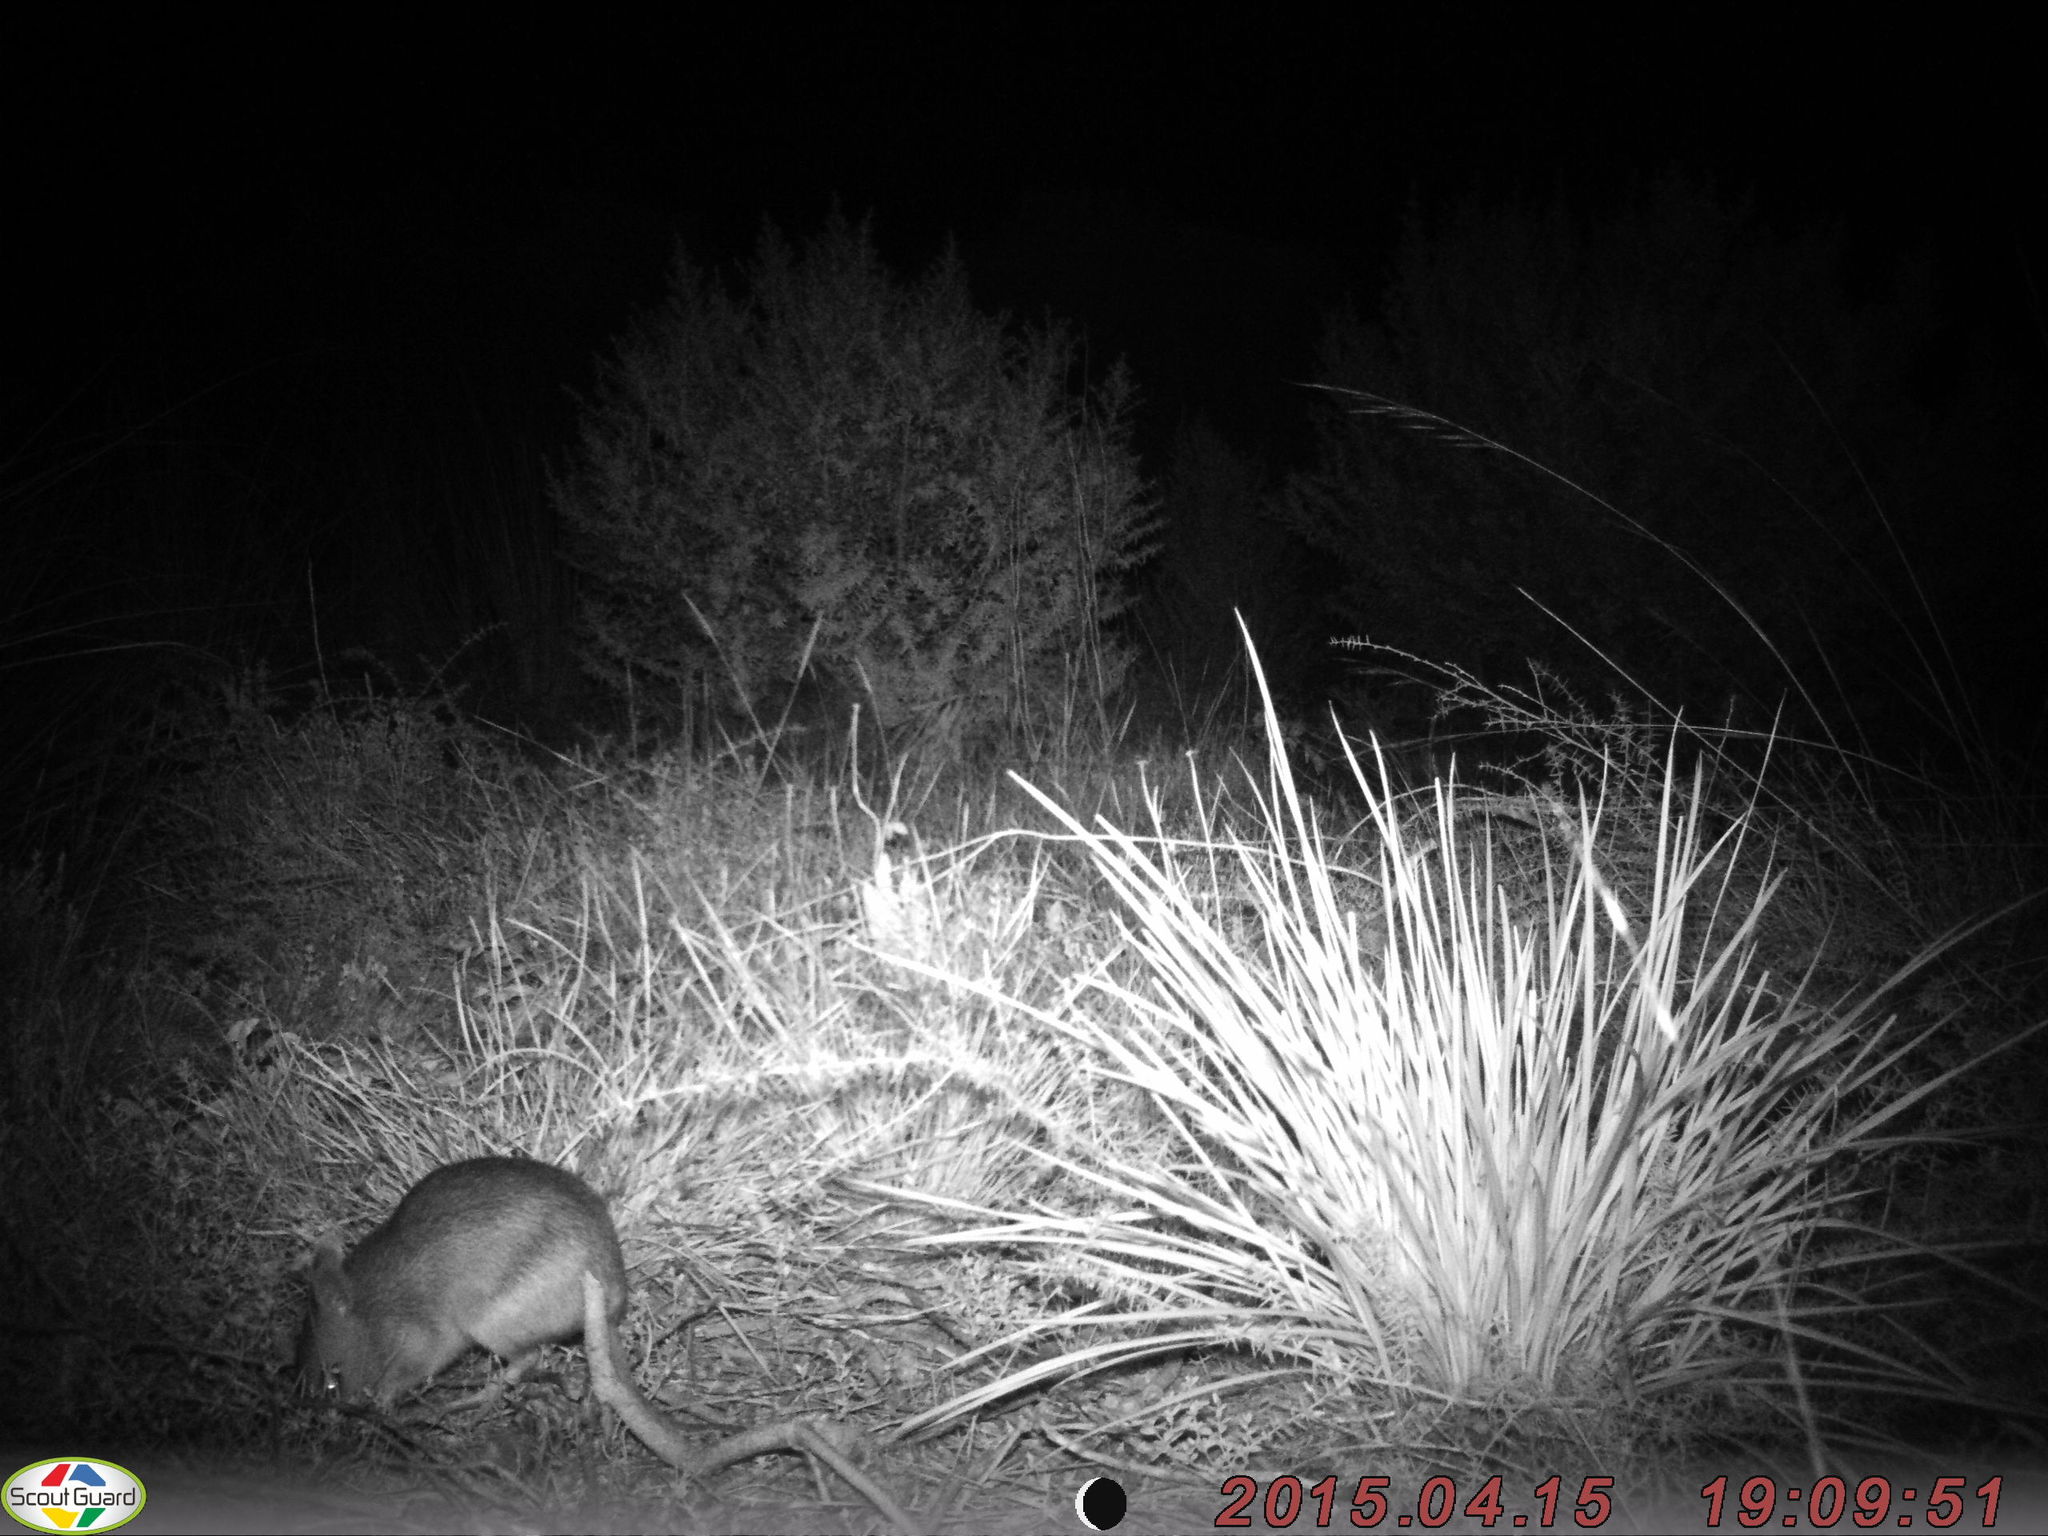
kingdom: Animalia
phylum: Chordata
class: Mammalia
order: Peramelemorphia
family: Peramelidae
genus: Perameles
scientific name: Perameles nasuta
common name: Long-nosed bandicoot
